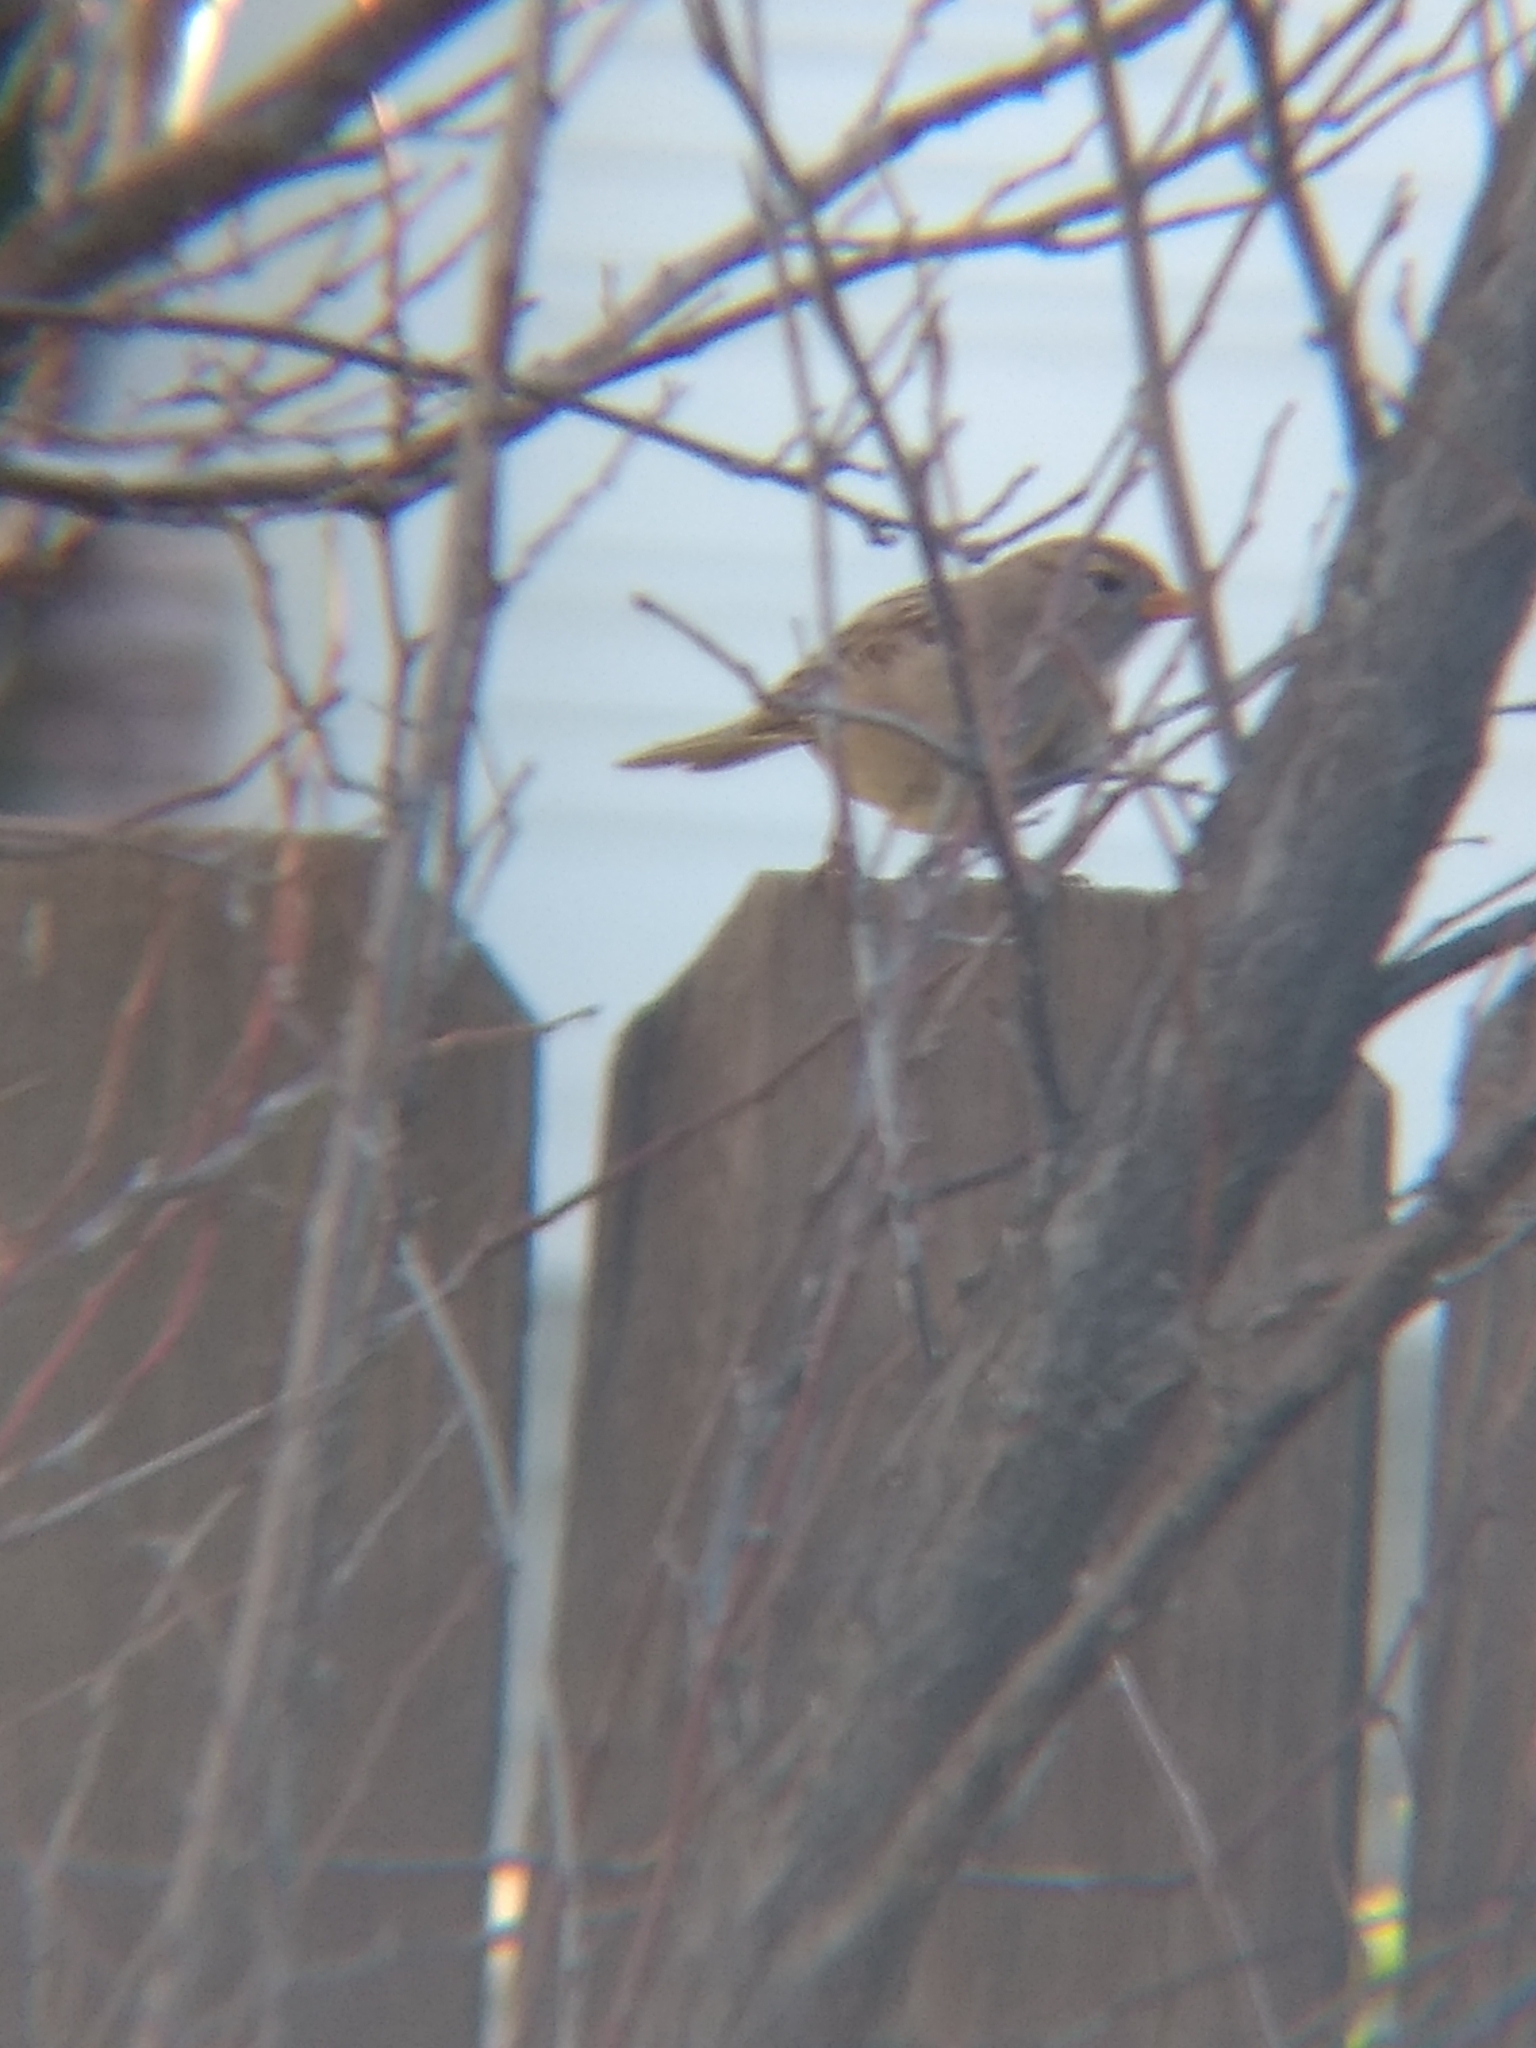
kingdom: Animalia
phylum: Chordata
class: Aves
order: Passeriformes
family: Passerellidae
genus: Zonotrichia
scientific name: Zonotrichia leucophrys
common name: White-crowned sparrow
